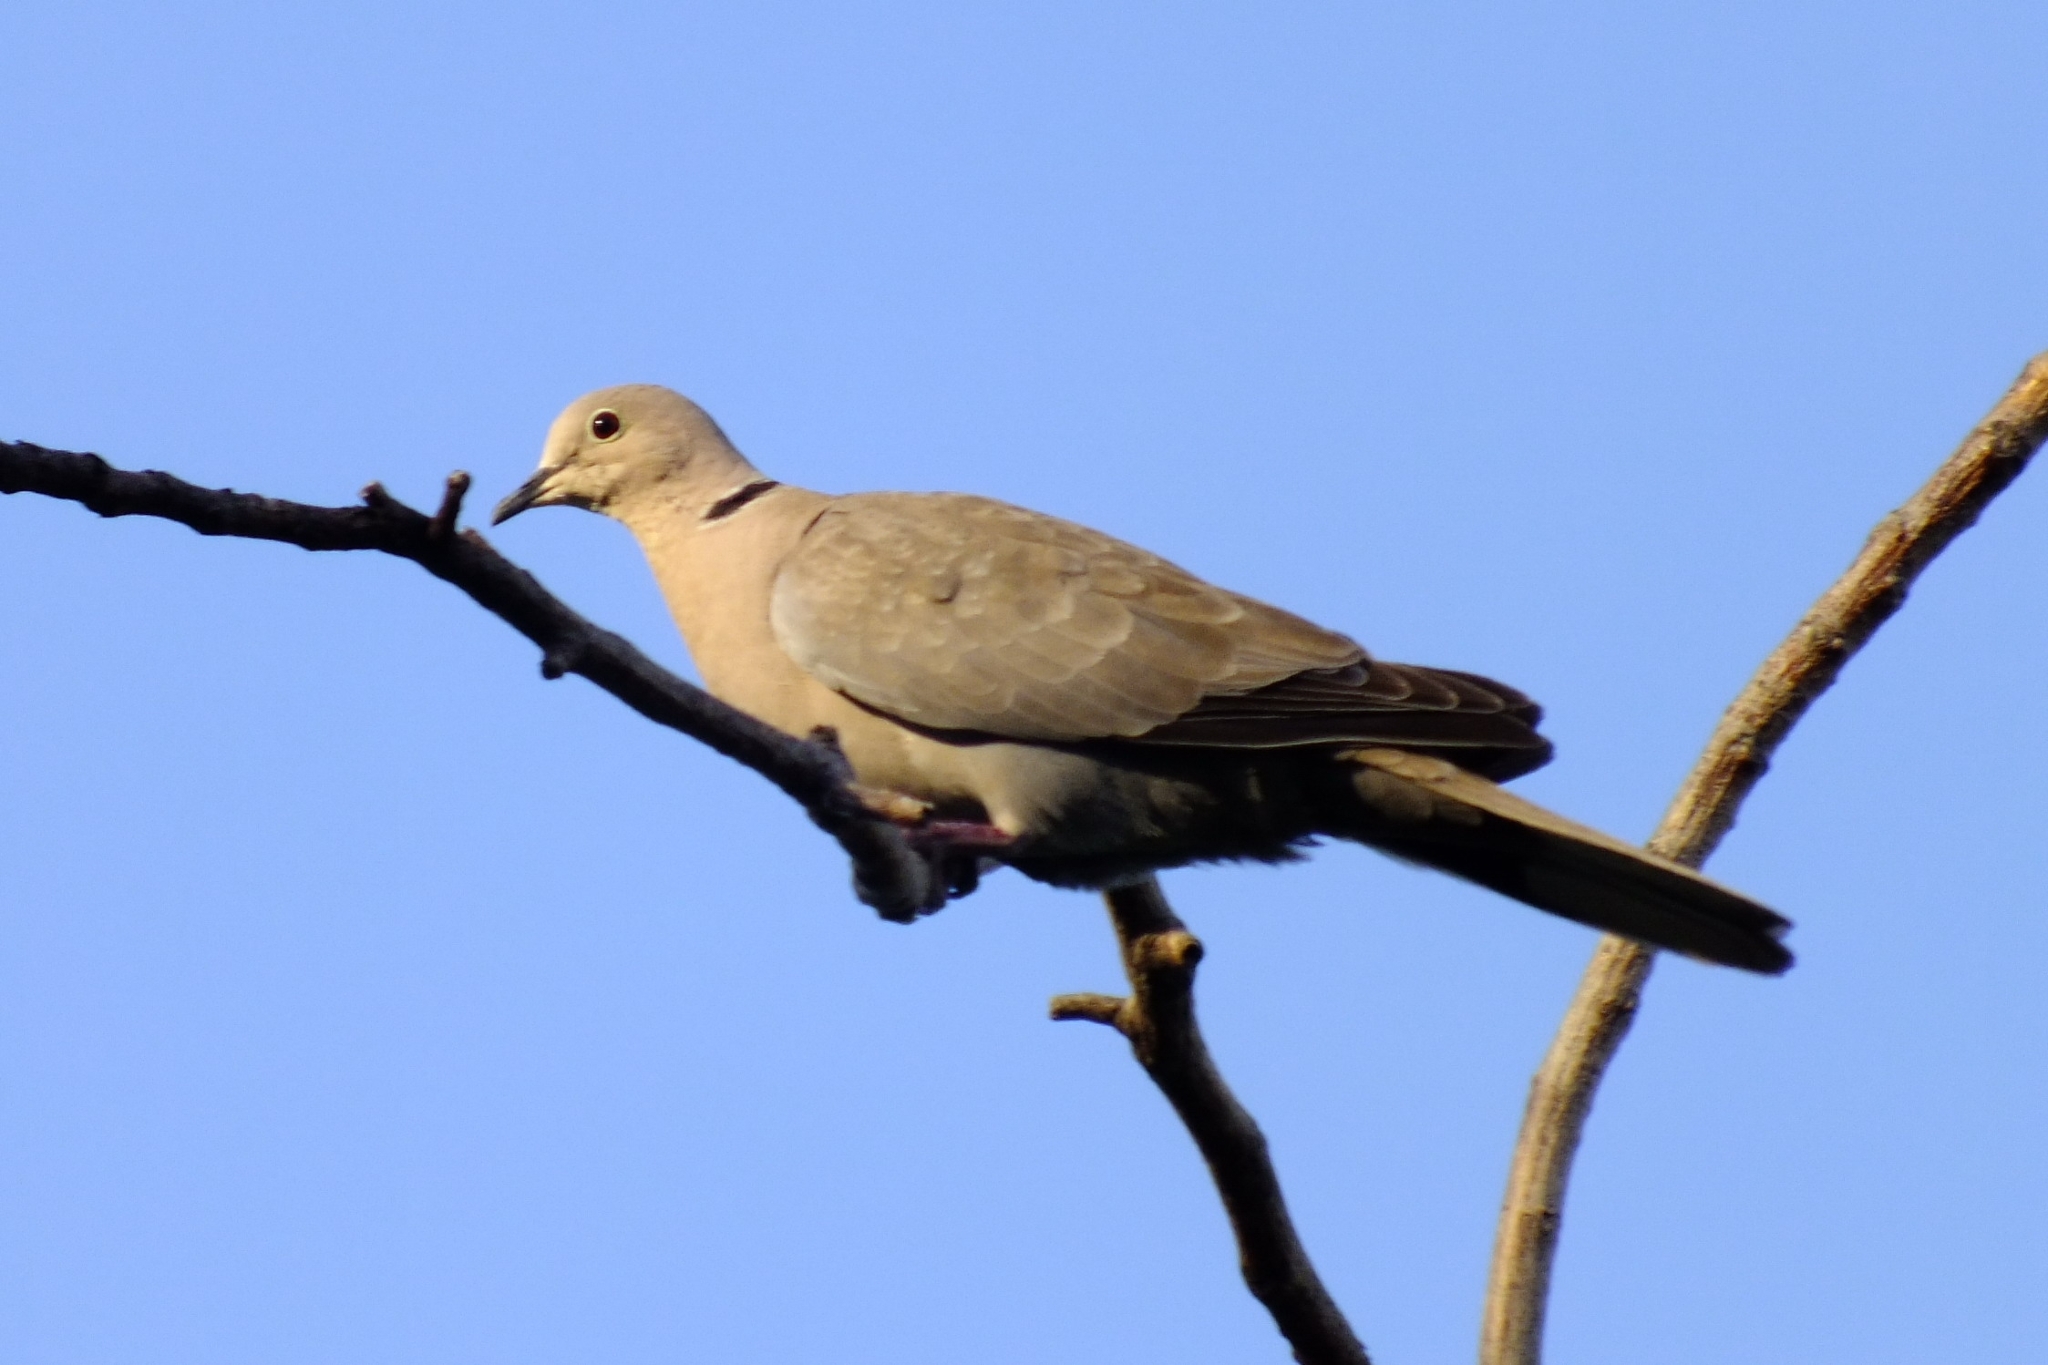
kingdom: Animalia
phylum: Chordata
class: Aves
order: Columbiformes
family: Columbidae
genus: Streptopelia
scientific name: Streptopelia decaocto
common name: Eurasian collared dove
